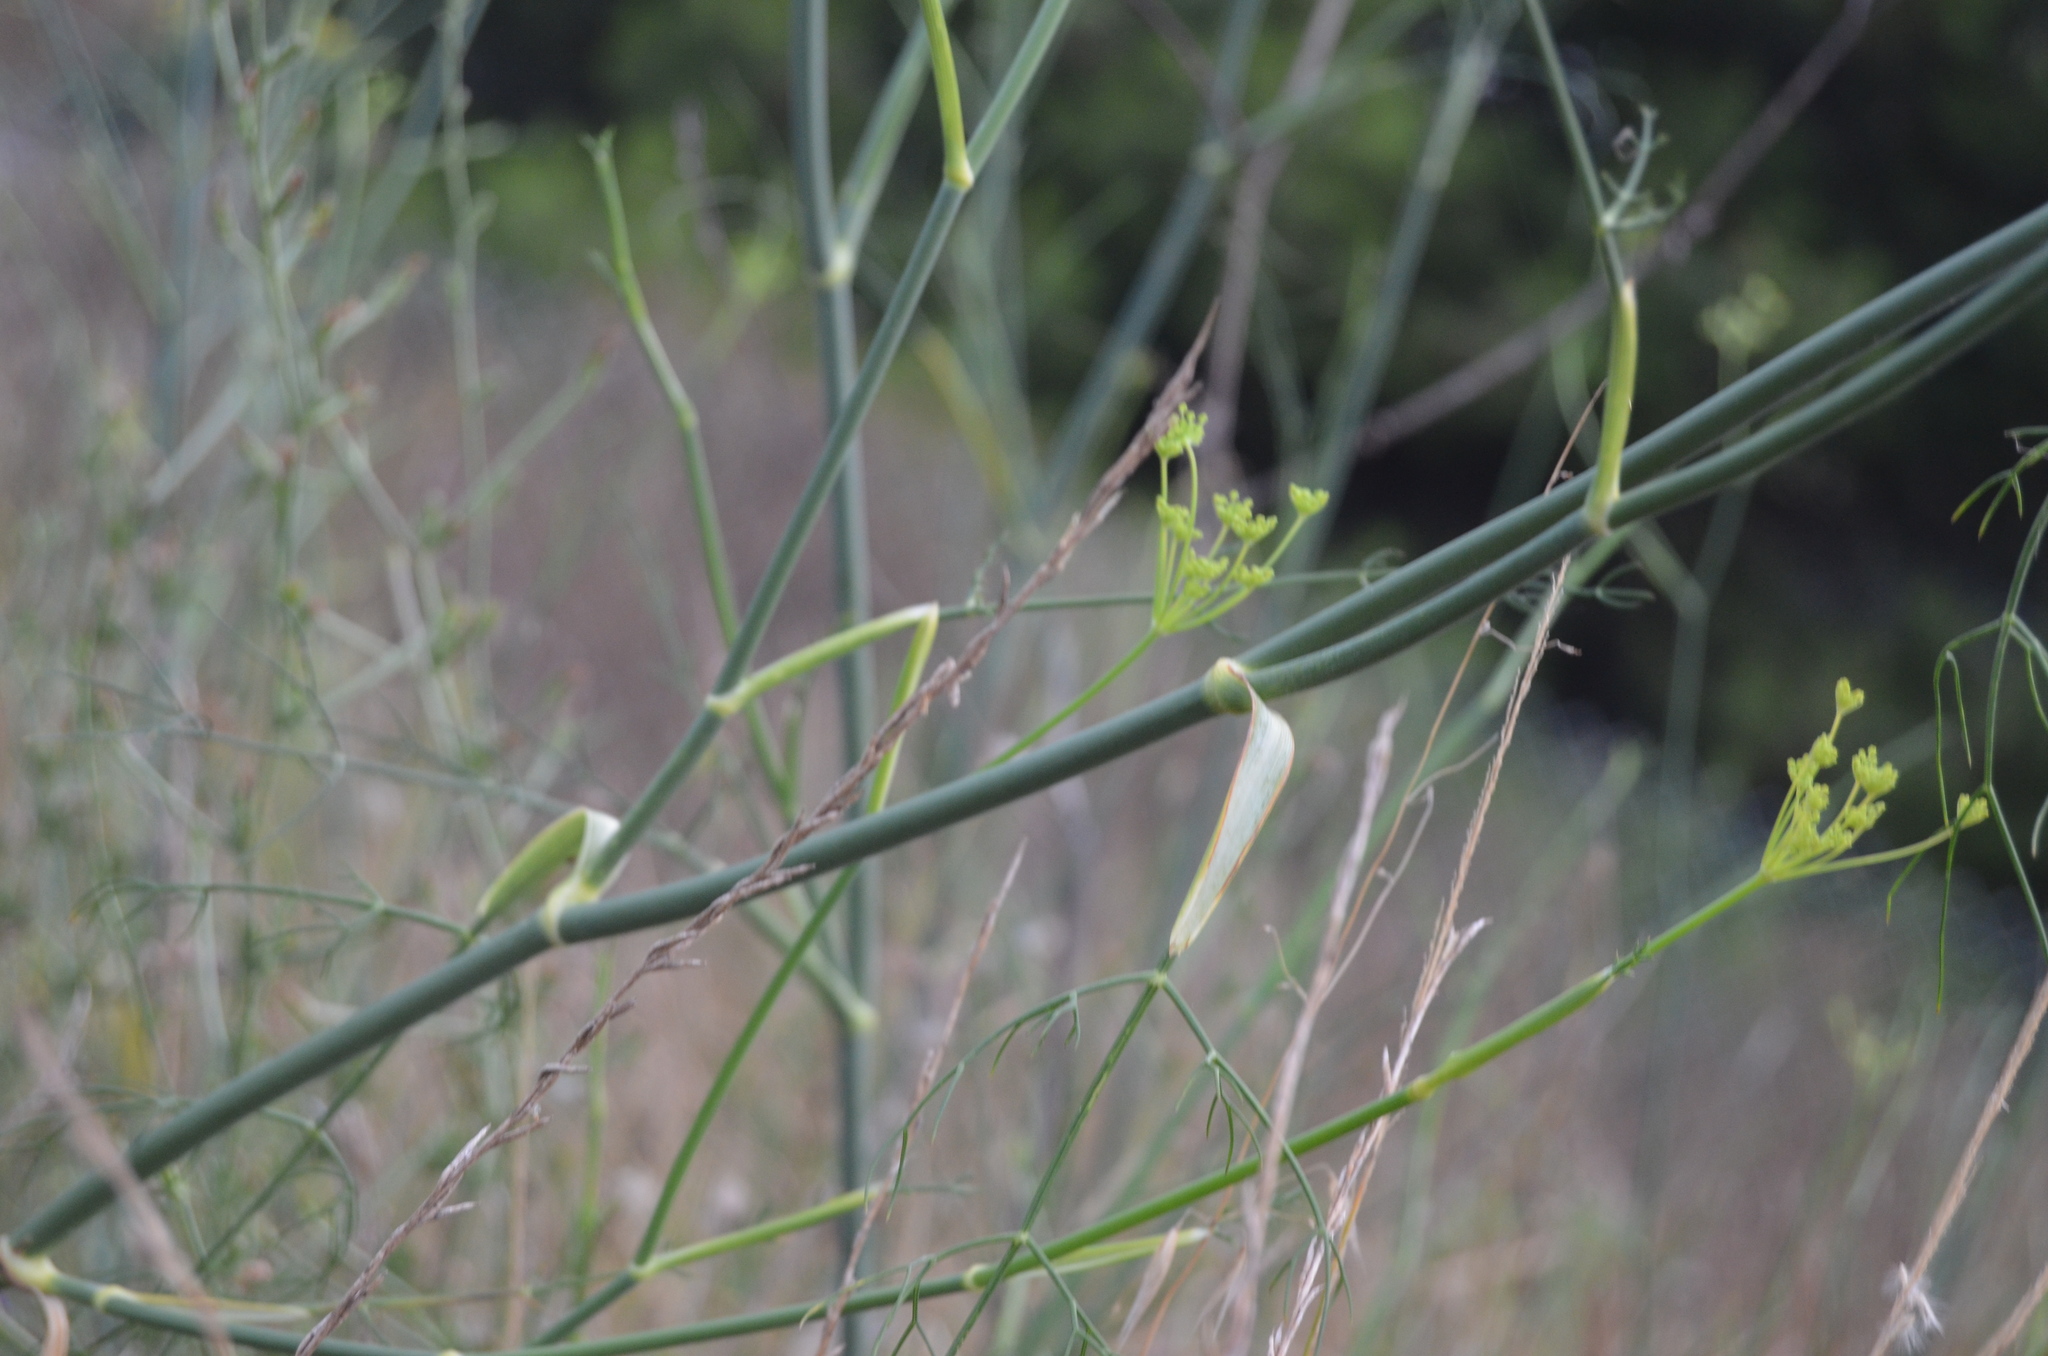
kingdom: Plantae
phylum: Tracheophyta
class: Magnoliopsida
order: Apiales
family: Apiaceae
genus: Foeniculum
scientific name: Foeniculum vulgare
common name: Fennel
